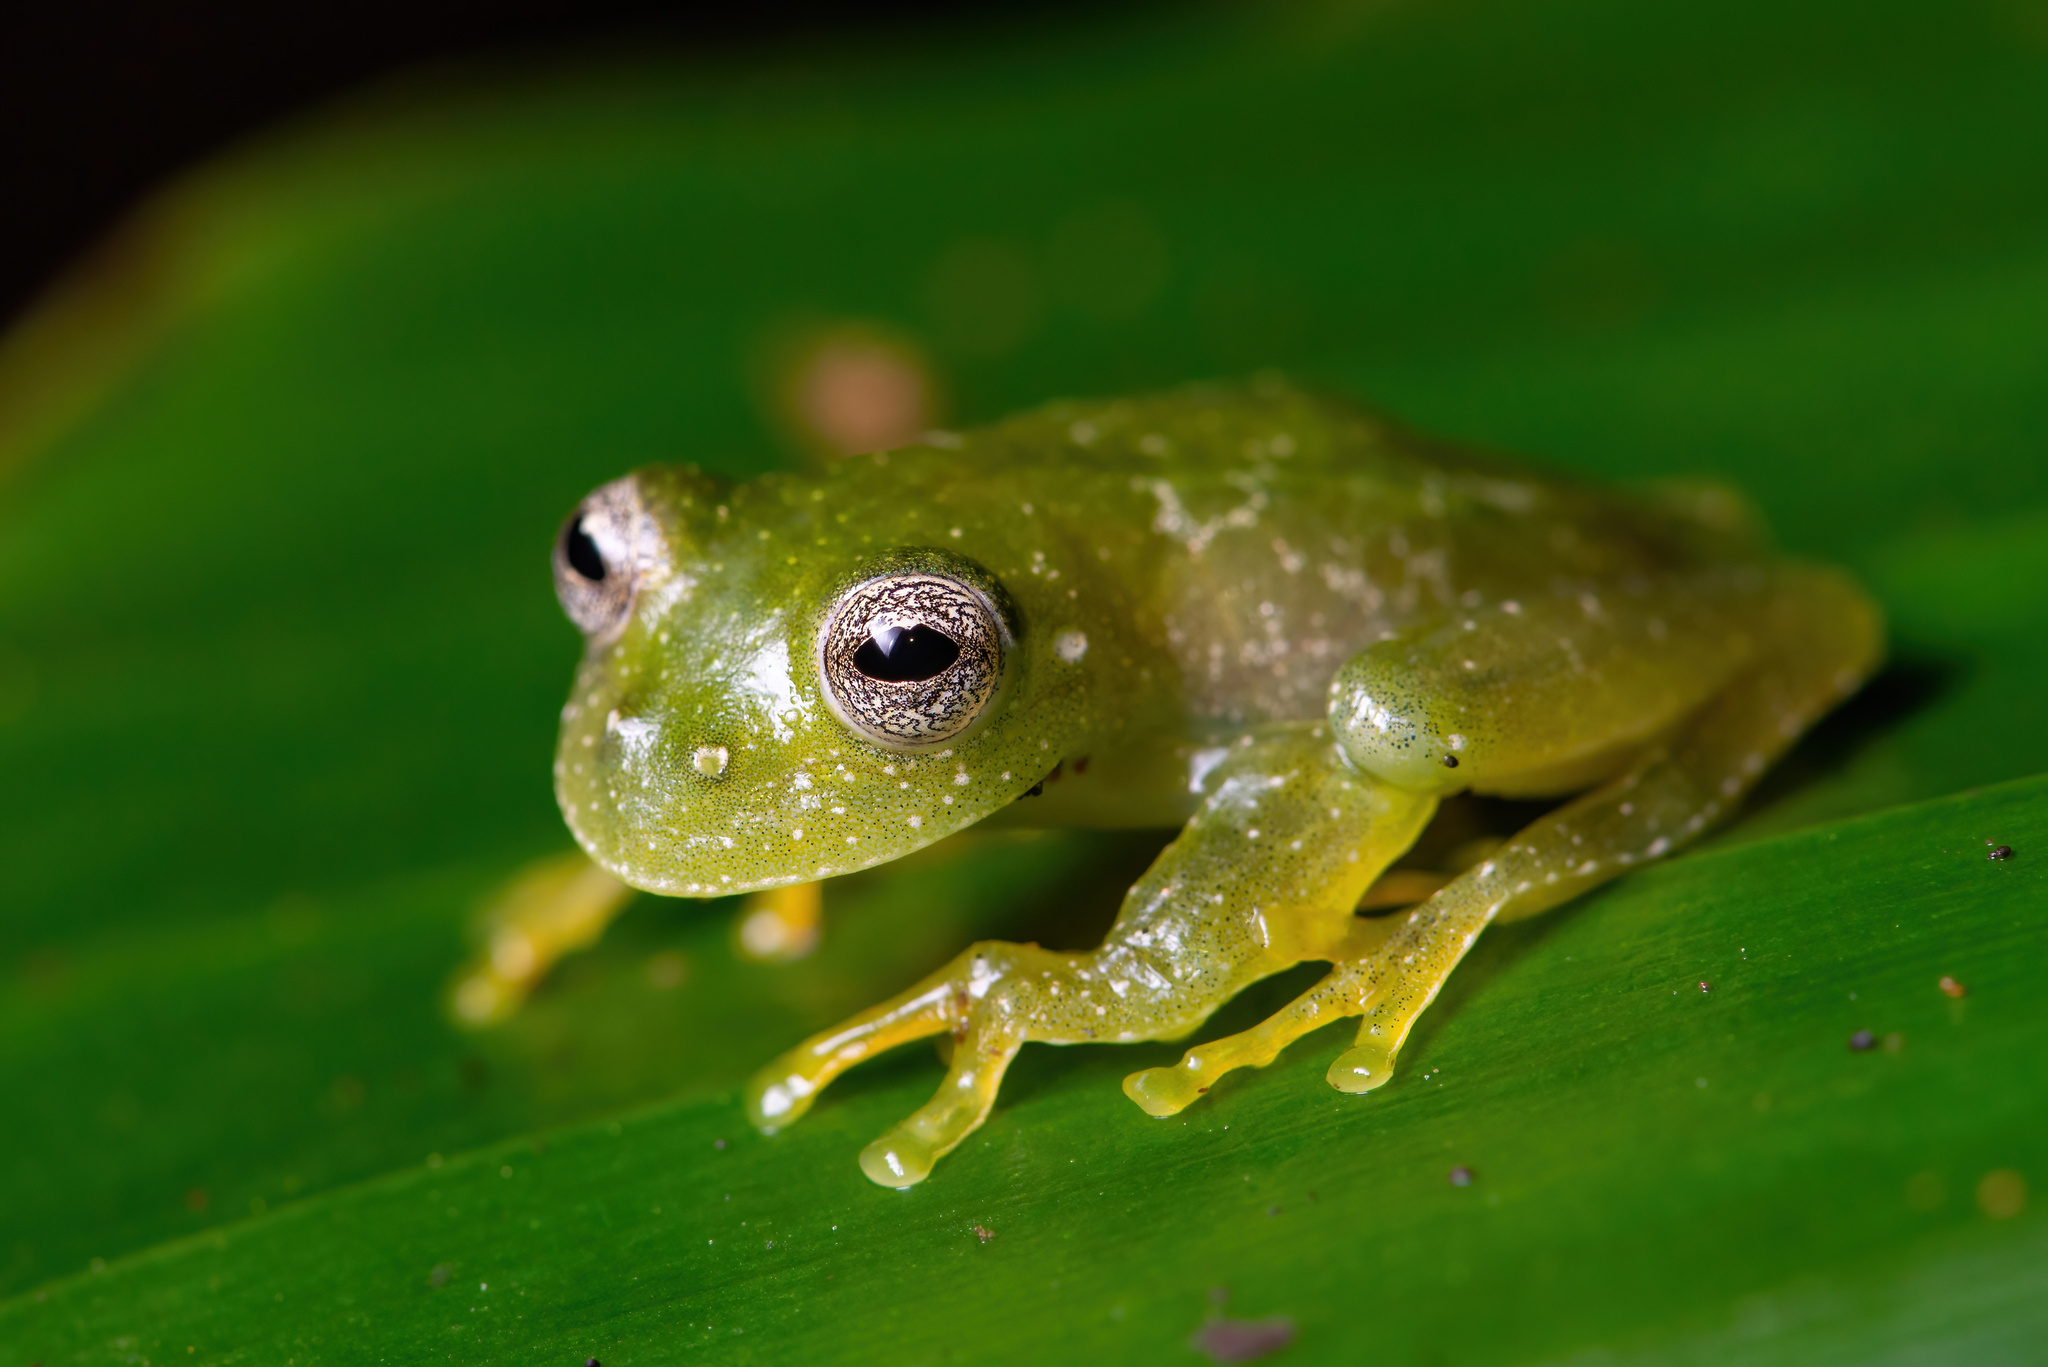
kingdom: Animalia
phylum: Chordata
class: Amphibia
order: Anura
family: Centrolenidae
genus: Vitreorana
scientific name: Vitreorana parvula
